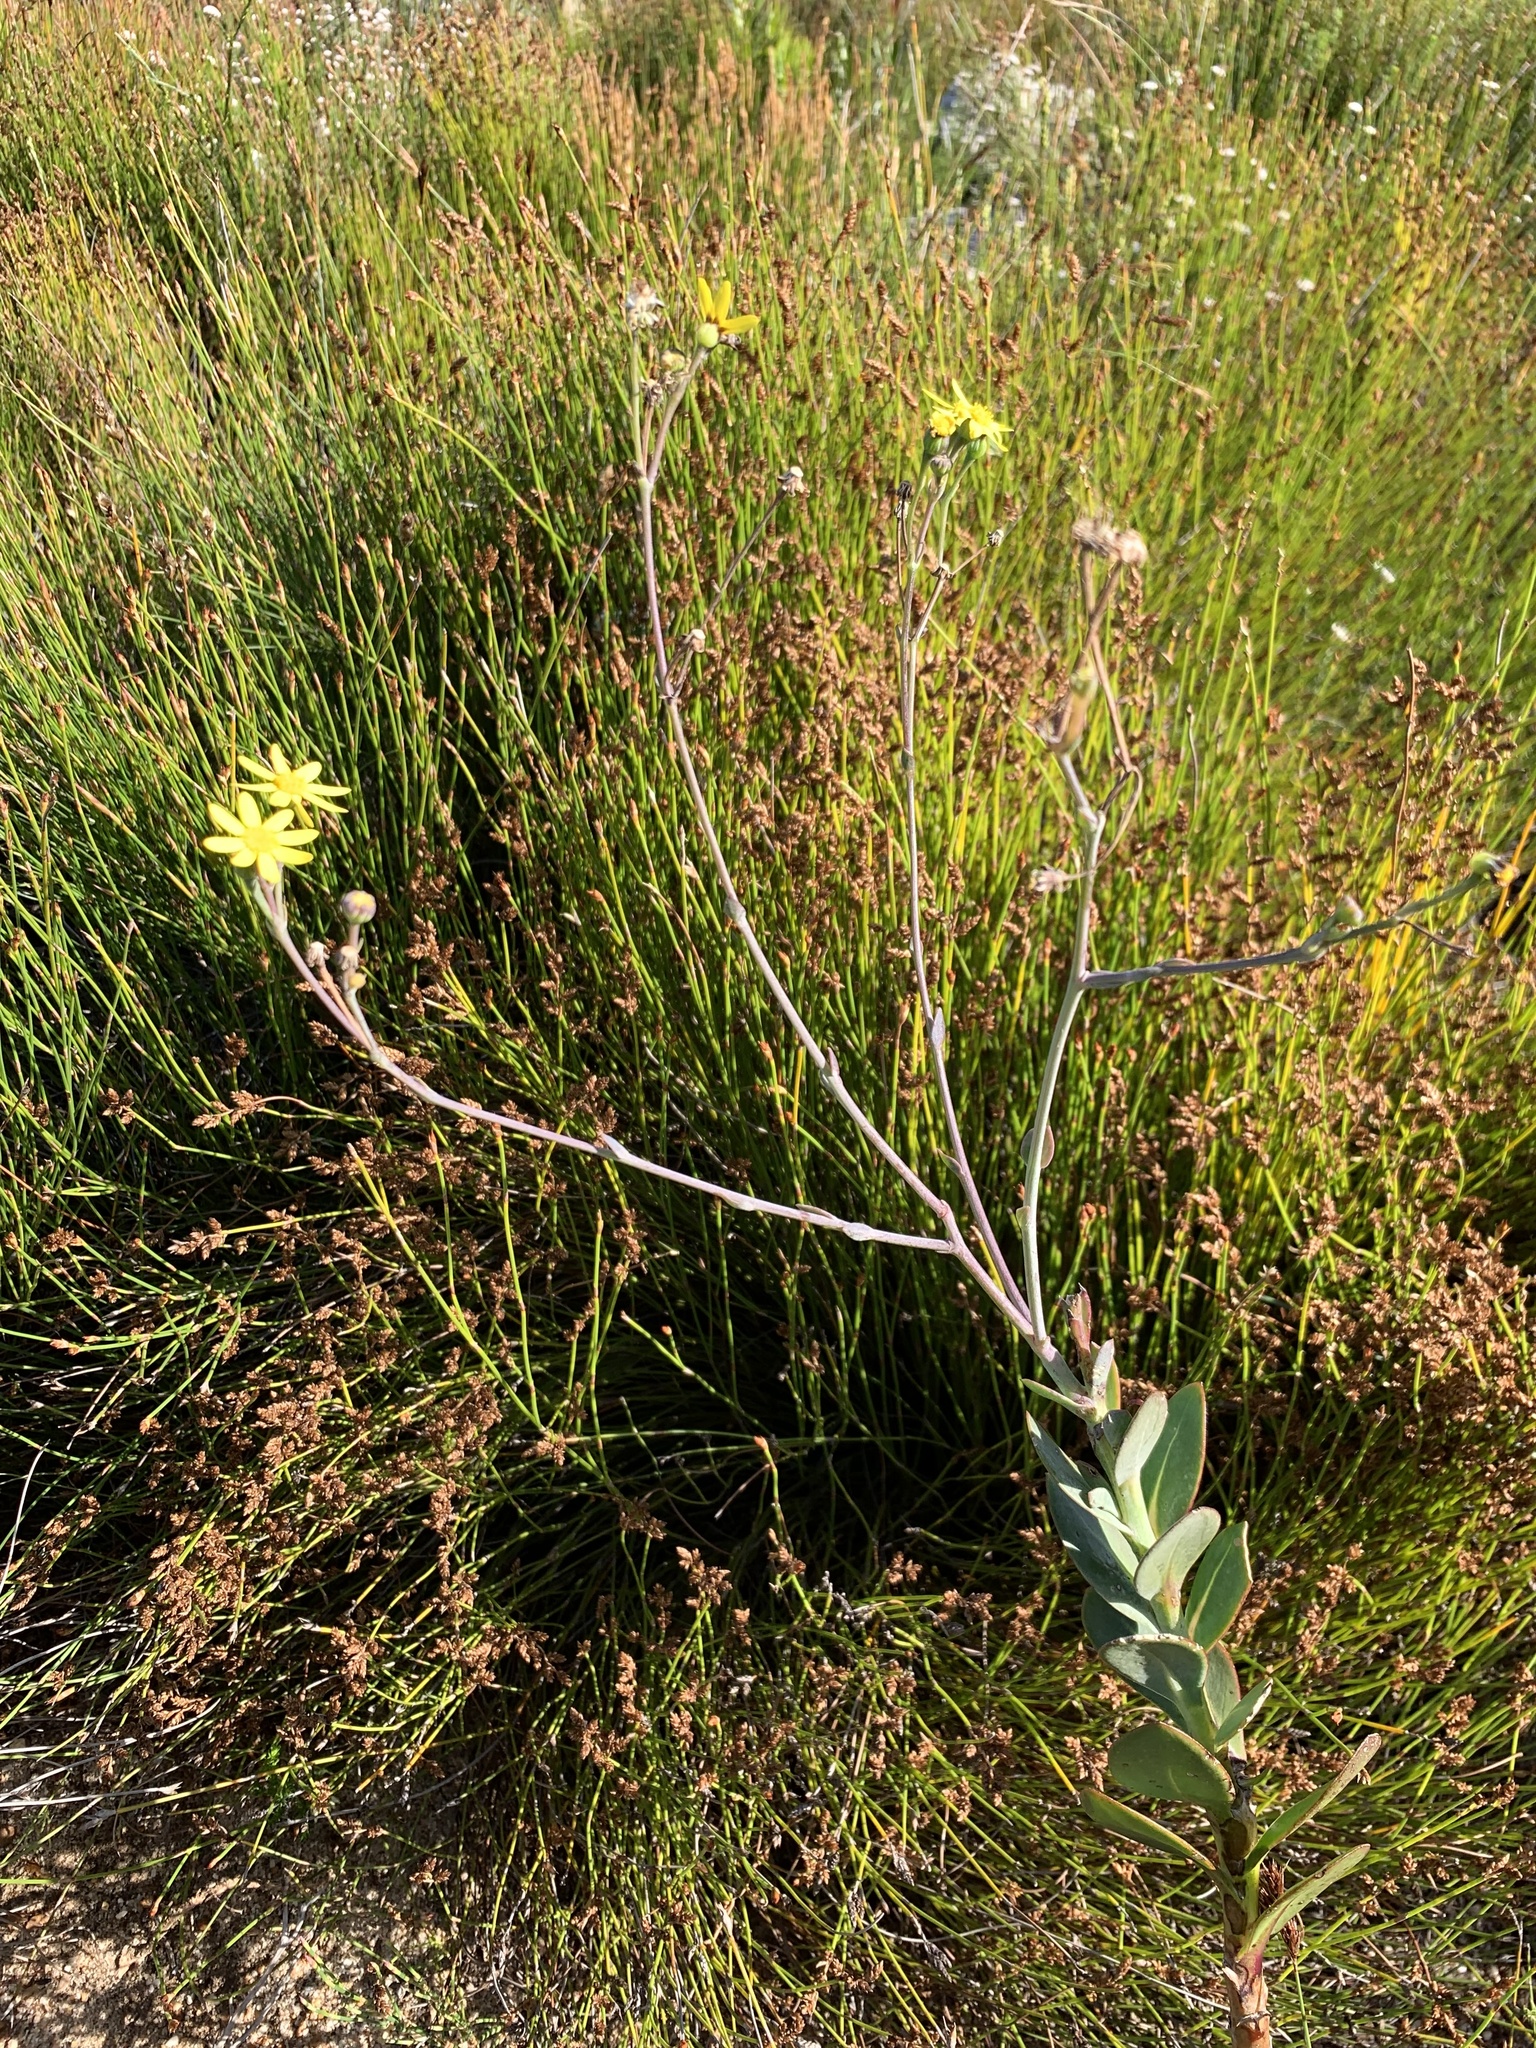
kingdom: Plantae
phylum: Tracheophyta
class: Magnoliopsida
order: Asterales
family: Asteraceae
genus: Othonna
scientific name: Othonna quinquedentata
